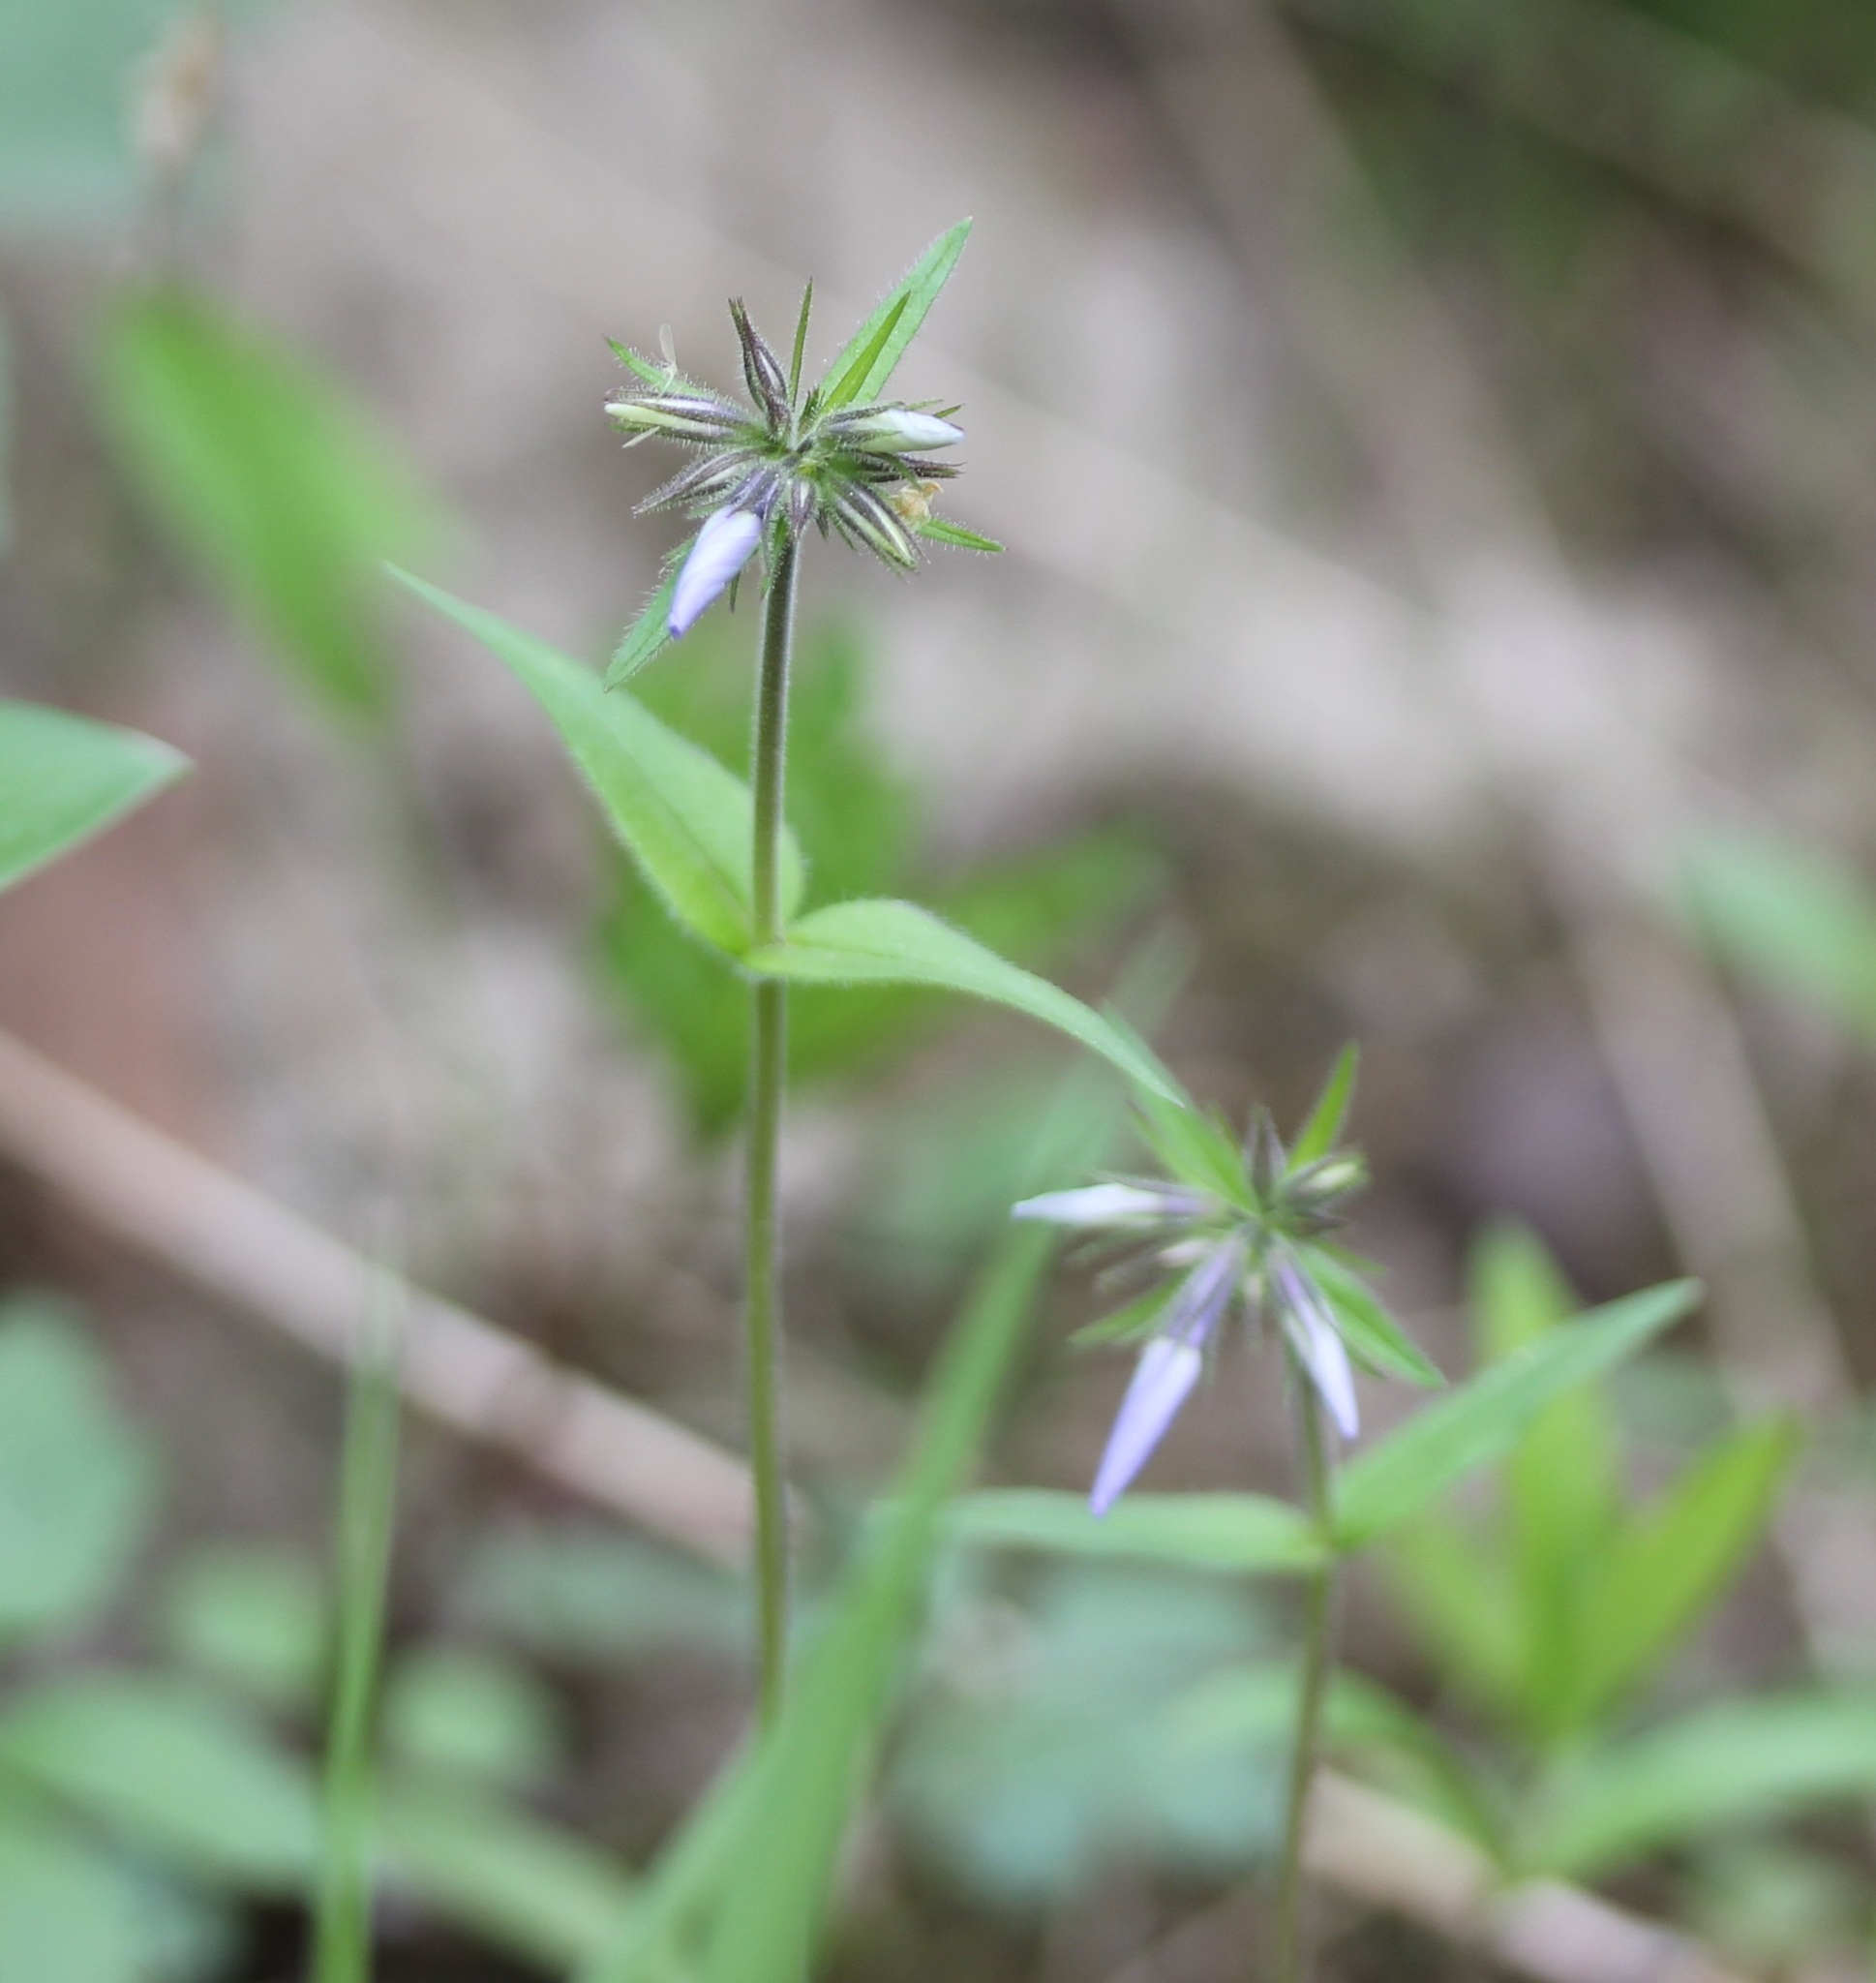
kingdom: Plantae
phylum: Tracheophyta
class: Magnoliopsida
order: Ericales
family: Polemoniaceae
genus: Phlox
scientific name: Phlox divaricata
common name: Blue phlox
